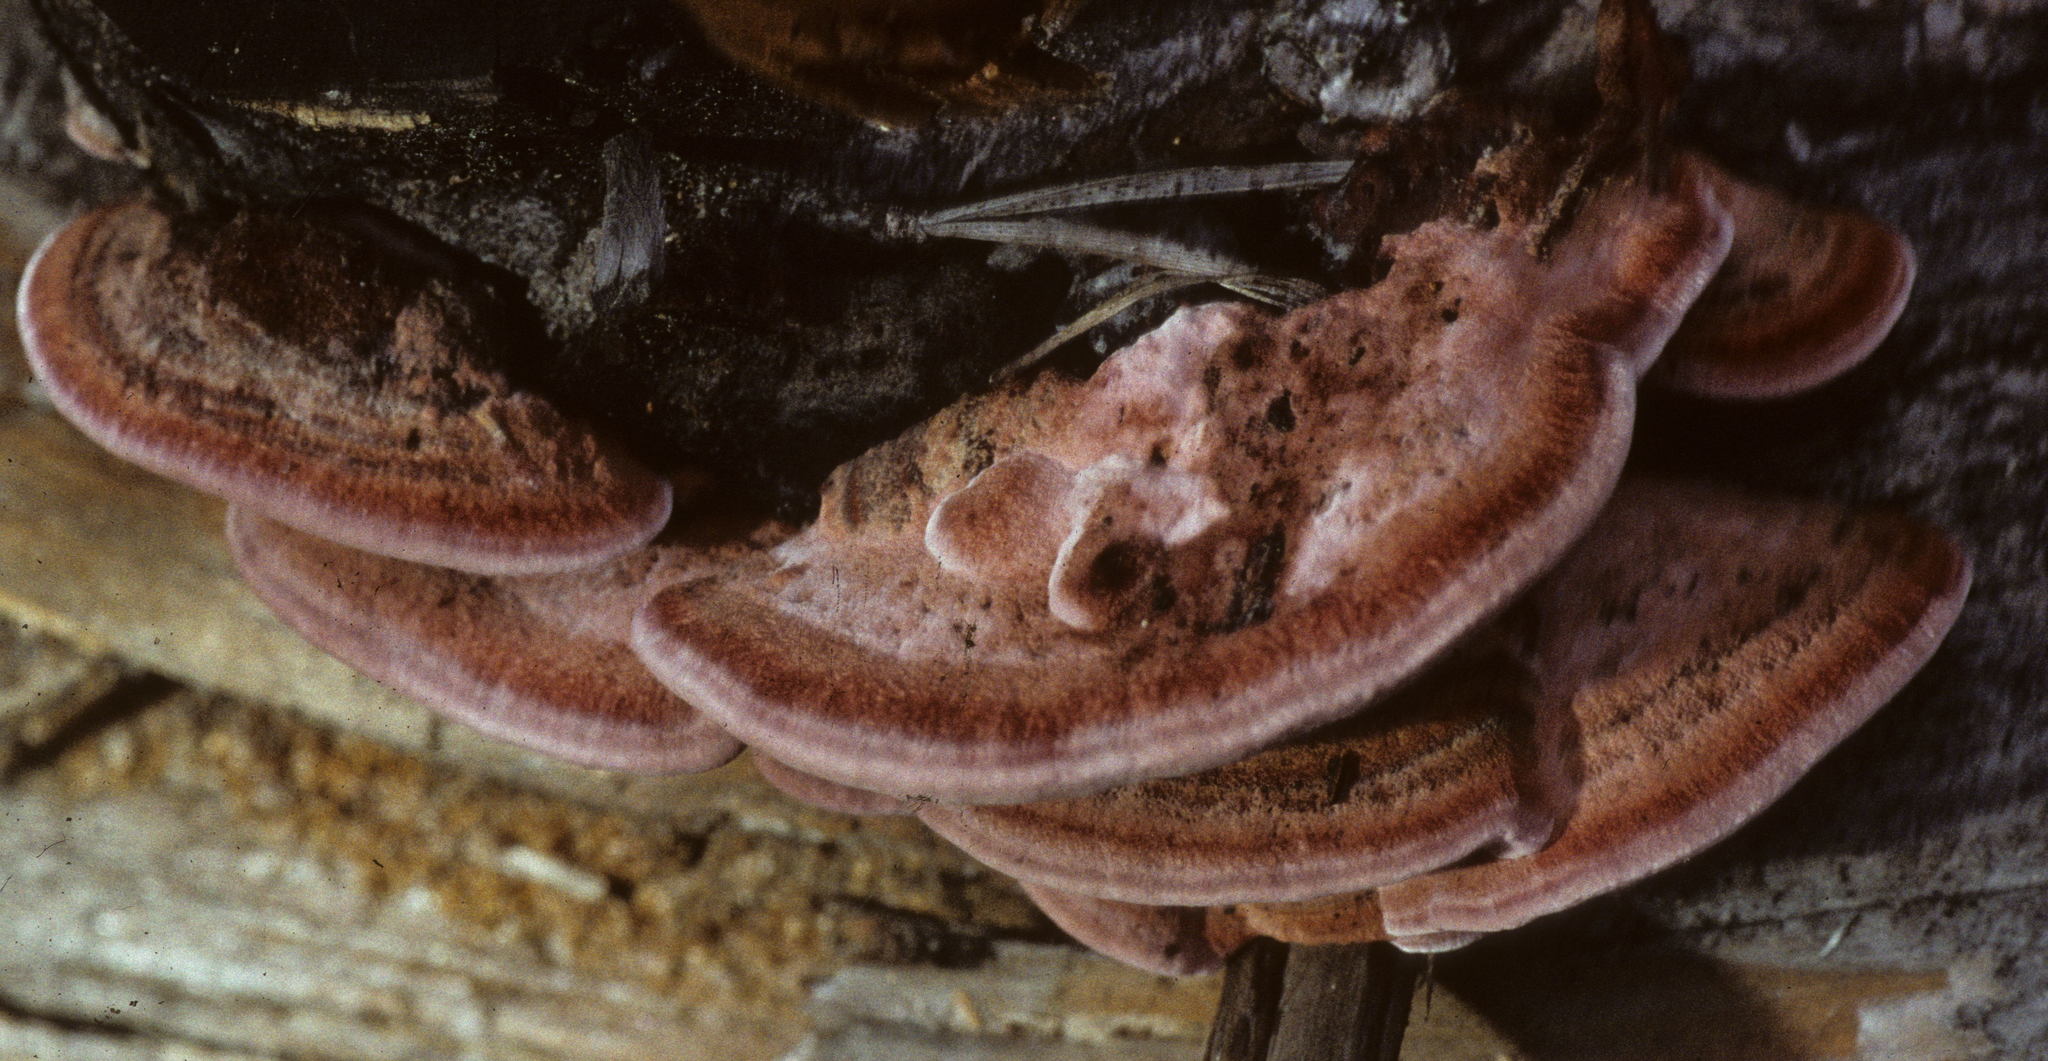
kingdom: Fungi
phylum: Basidiomycota
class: Agaricomycetes
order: Polyporales
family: Fomitopsidaceae
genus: Rhodofomes
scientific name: Rhodofomes cajanderi
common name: Rosy conk
